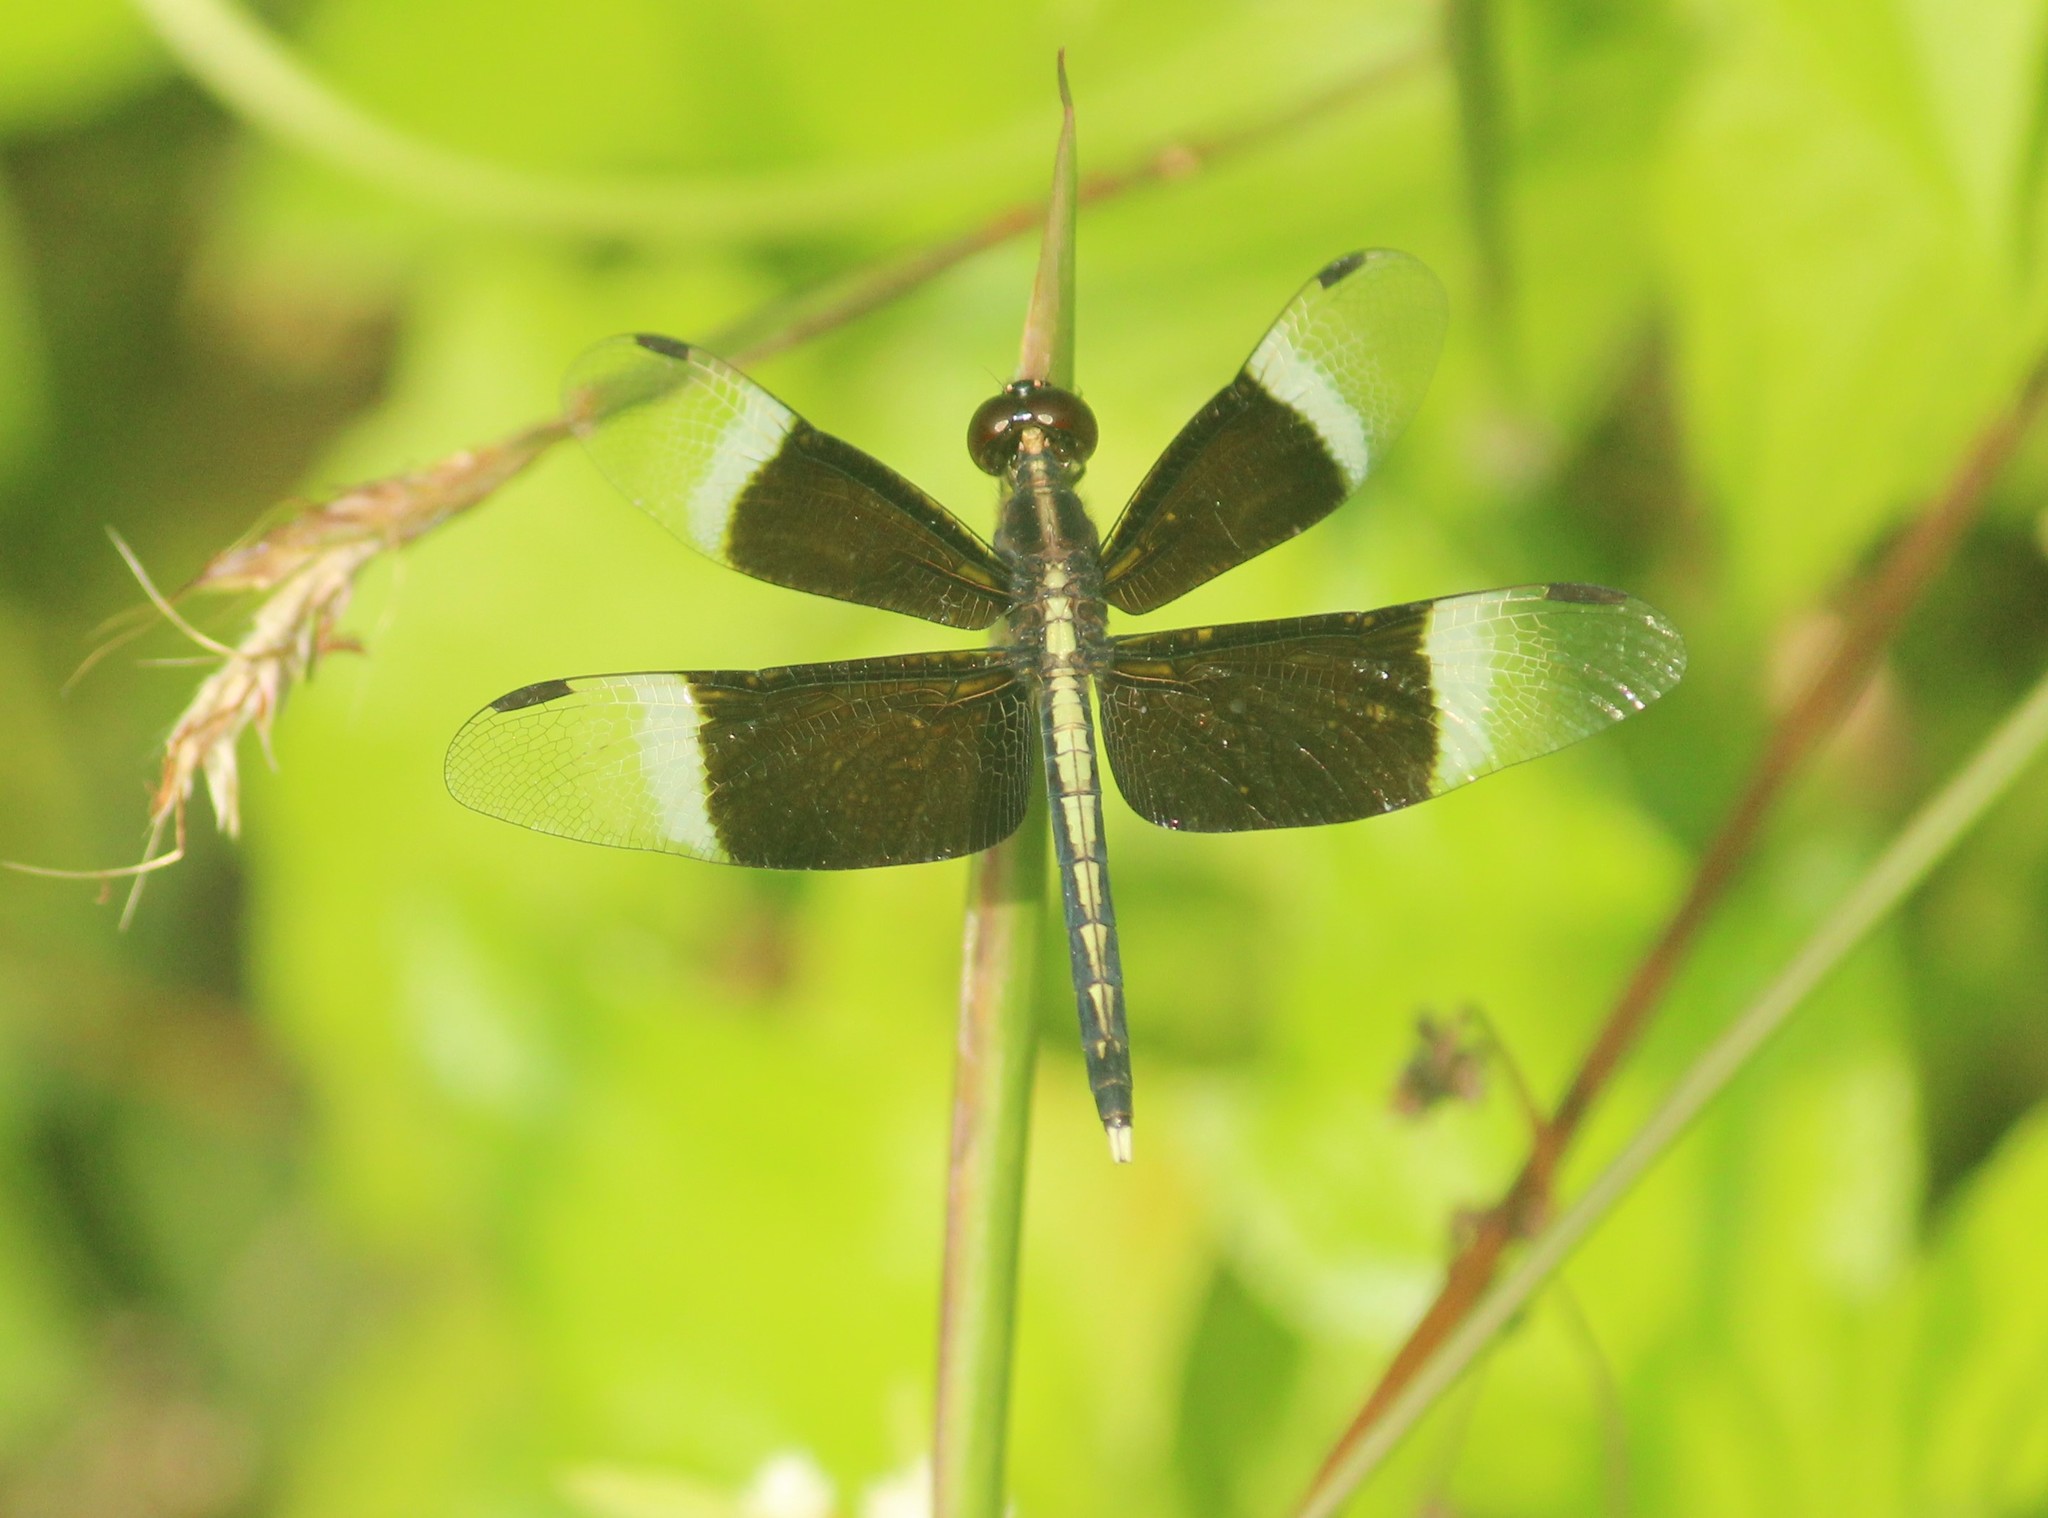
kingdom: Animalia
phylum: Arthropoda
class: Insecta
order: Odonata
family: Libellulidae
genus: Neurothemis
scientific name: Neurothemis tullia
